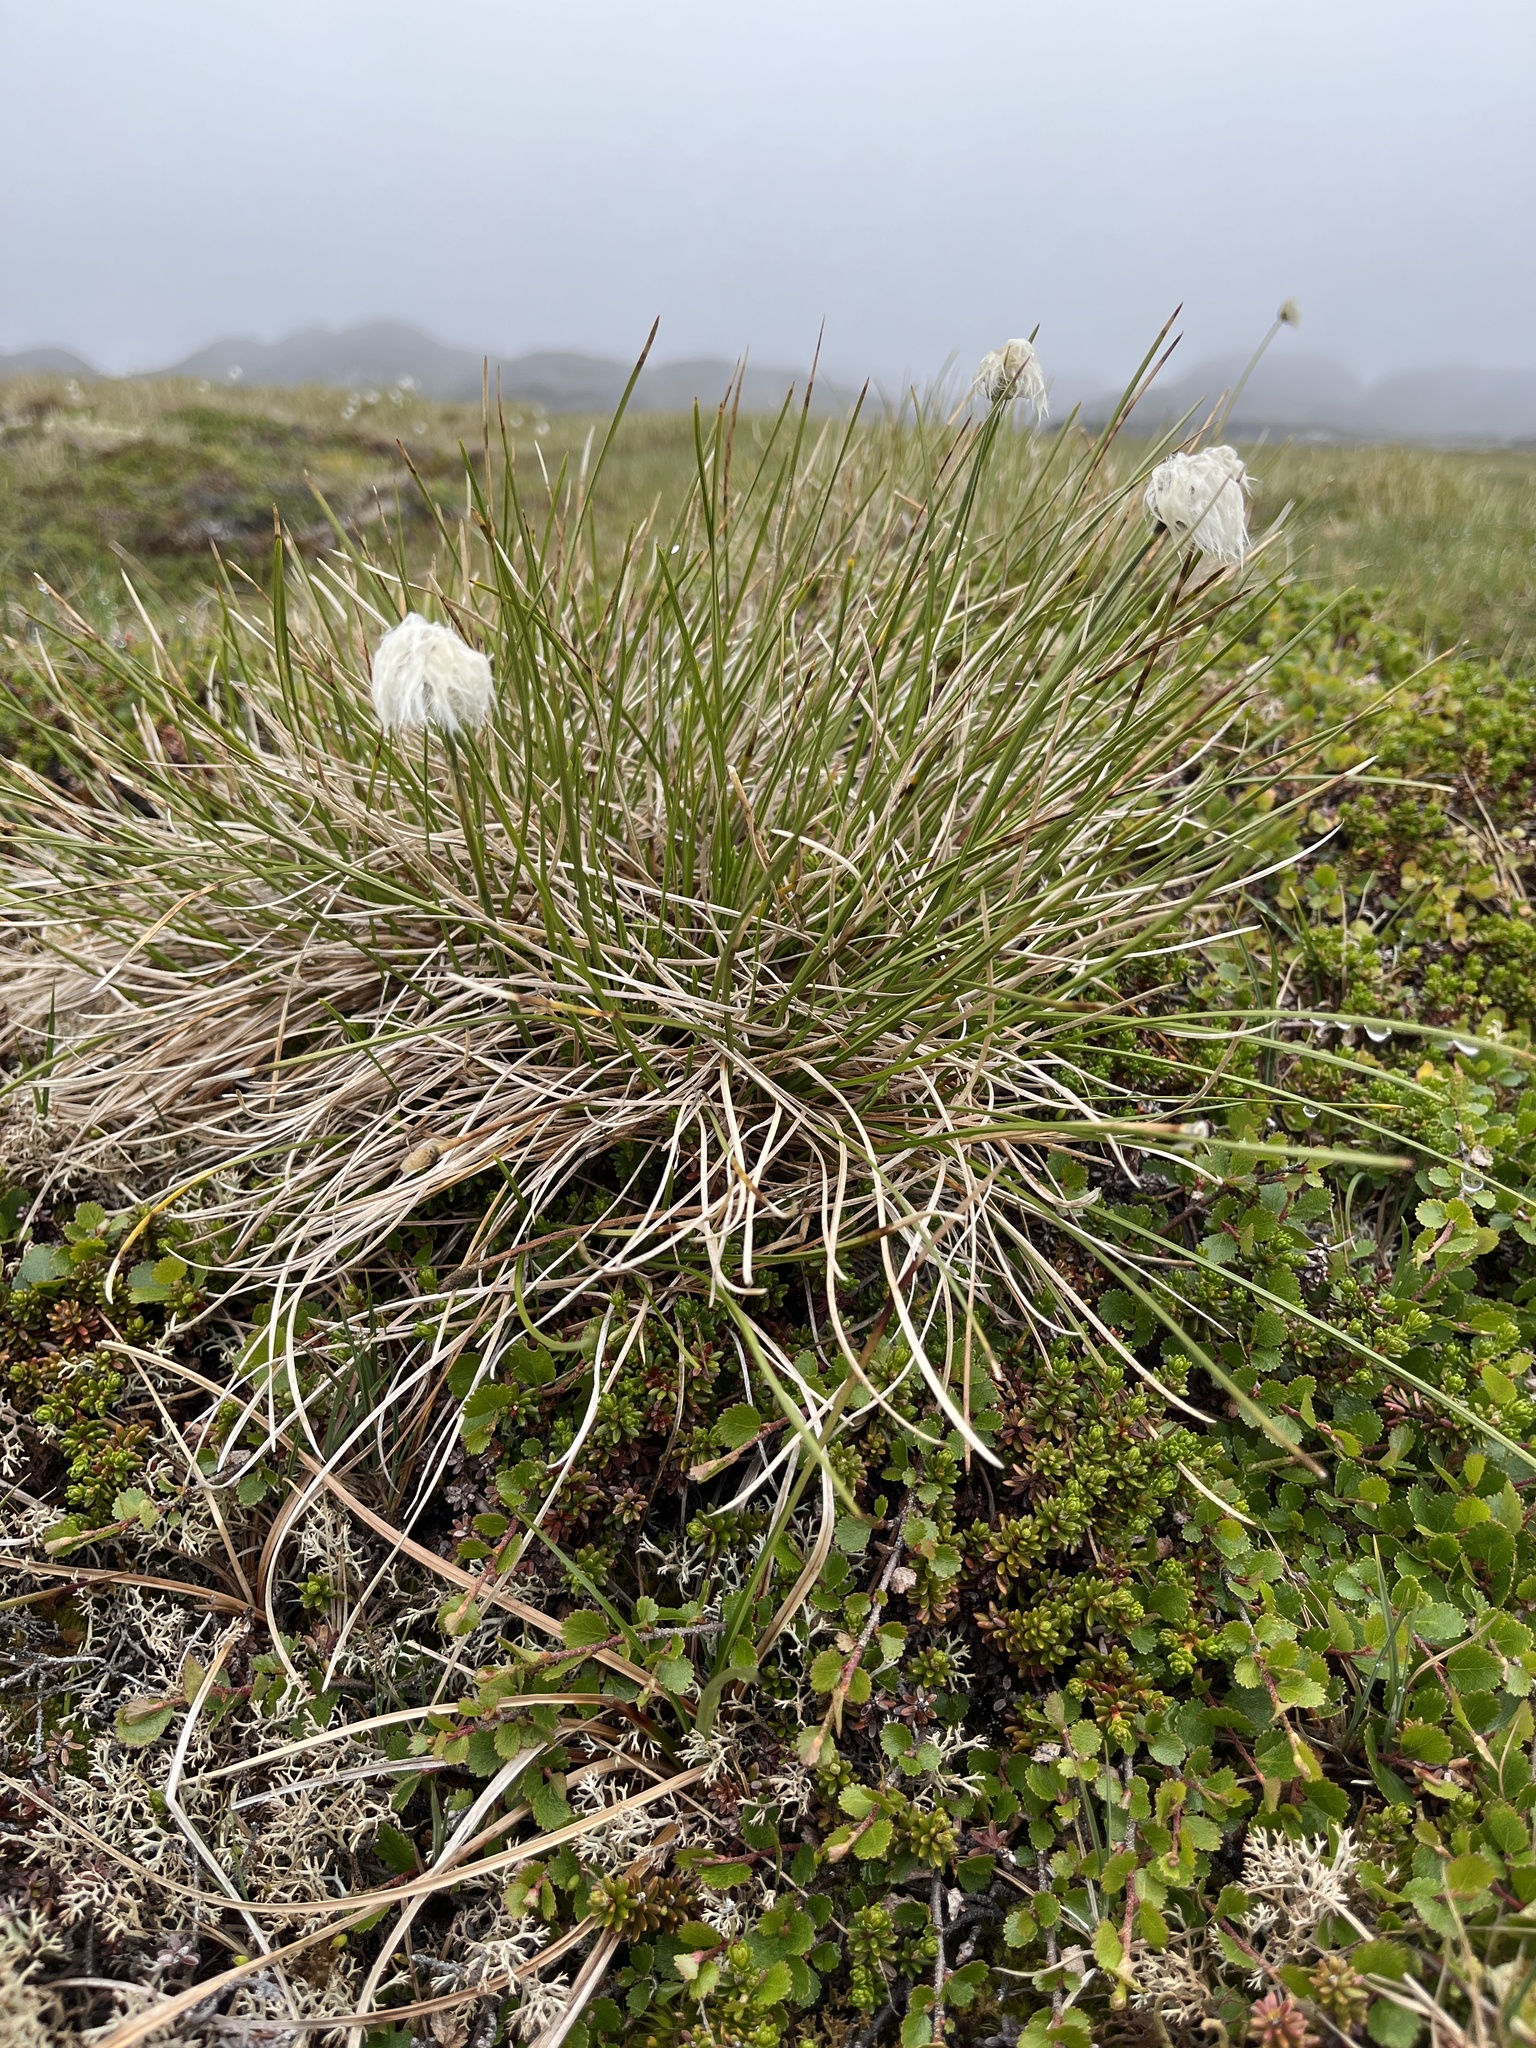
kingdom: Plantae
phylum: Tracheophyta
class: Liliopsida
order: Poales
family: Cyperaceae
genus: Eriophorum
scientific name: Eriophorum vaginatum
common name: Hare's-tail cottongrass
